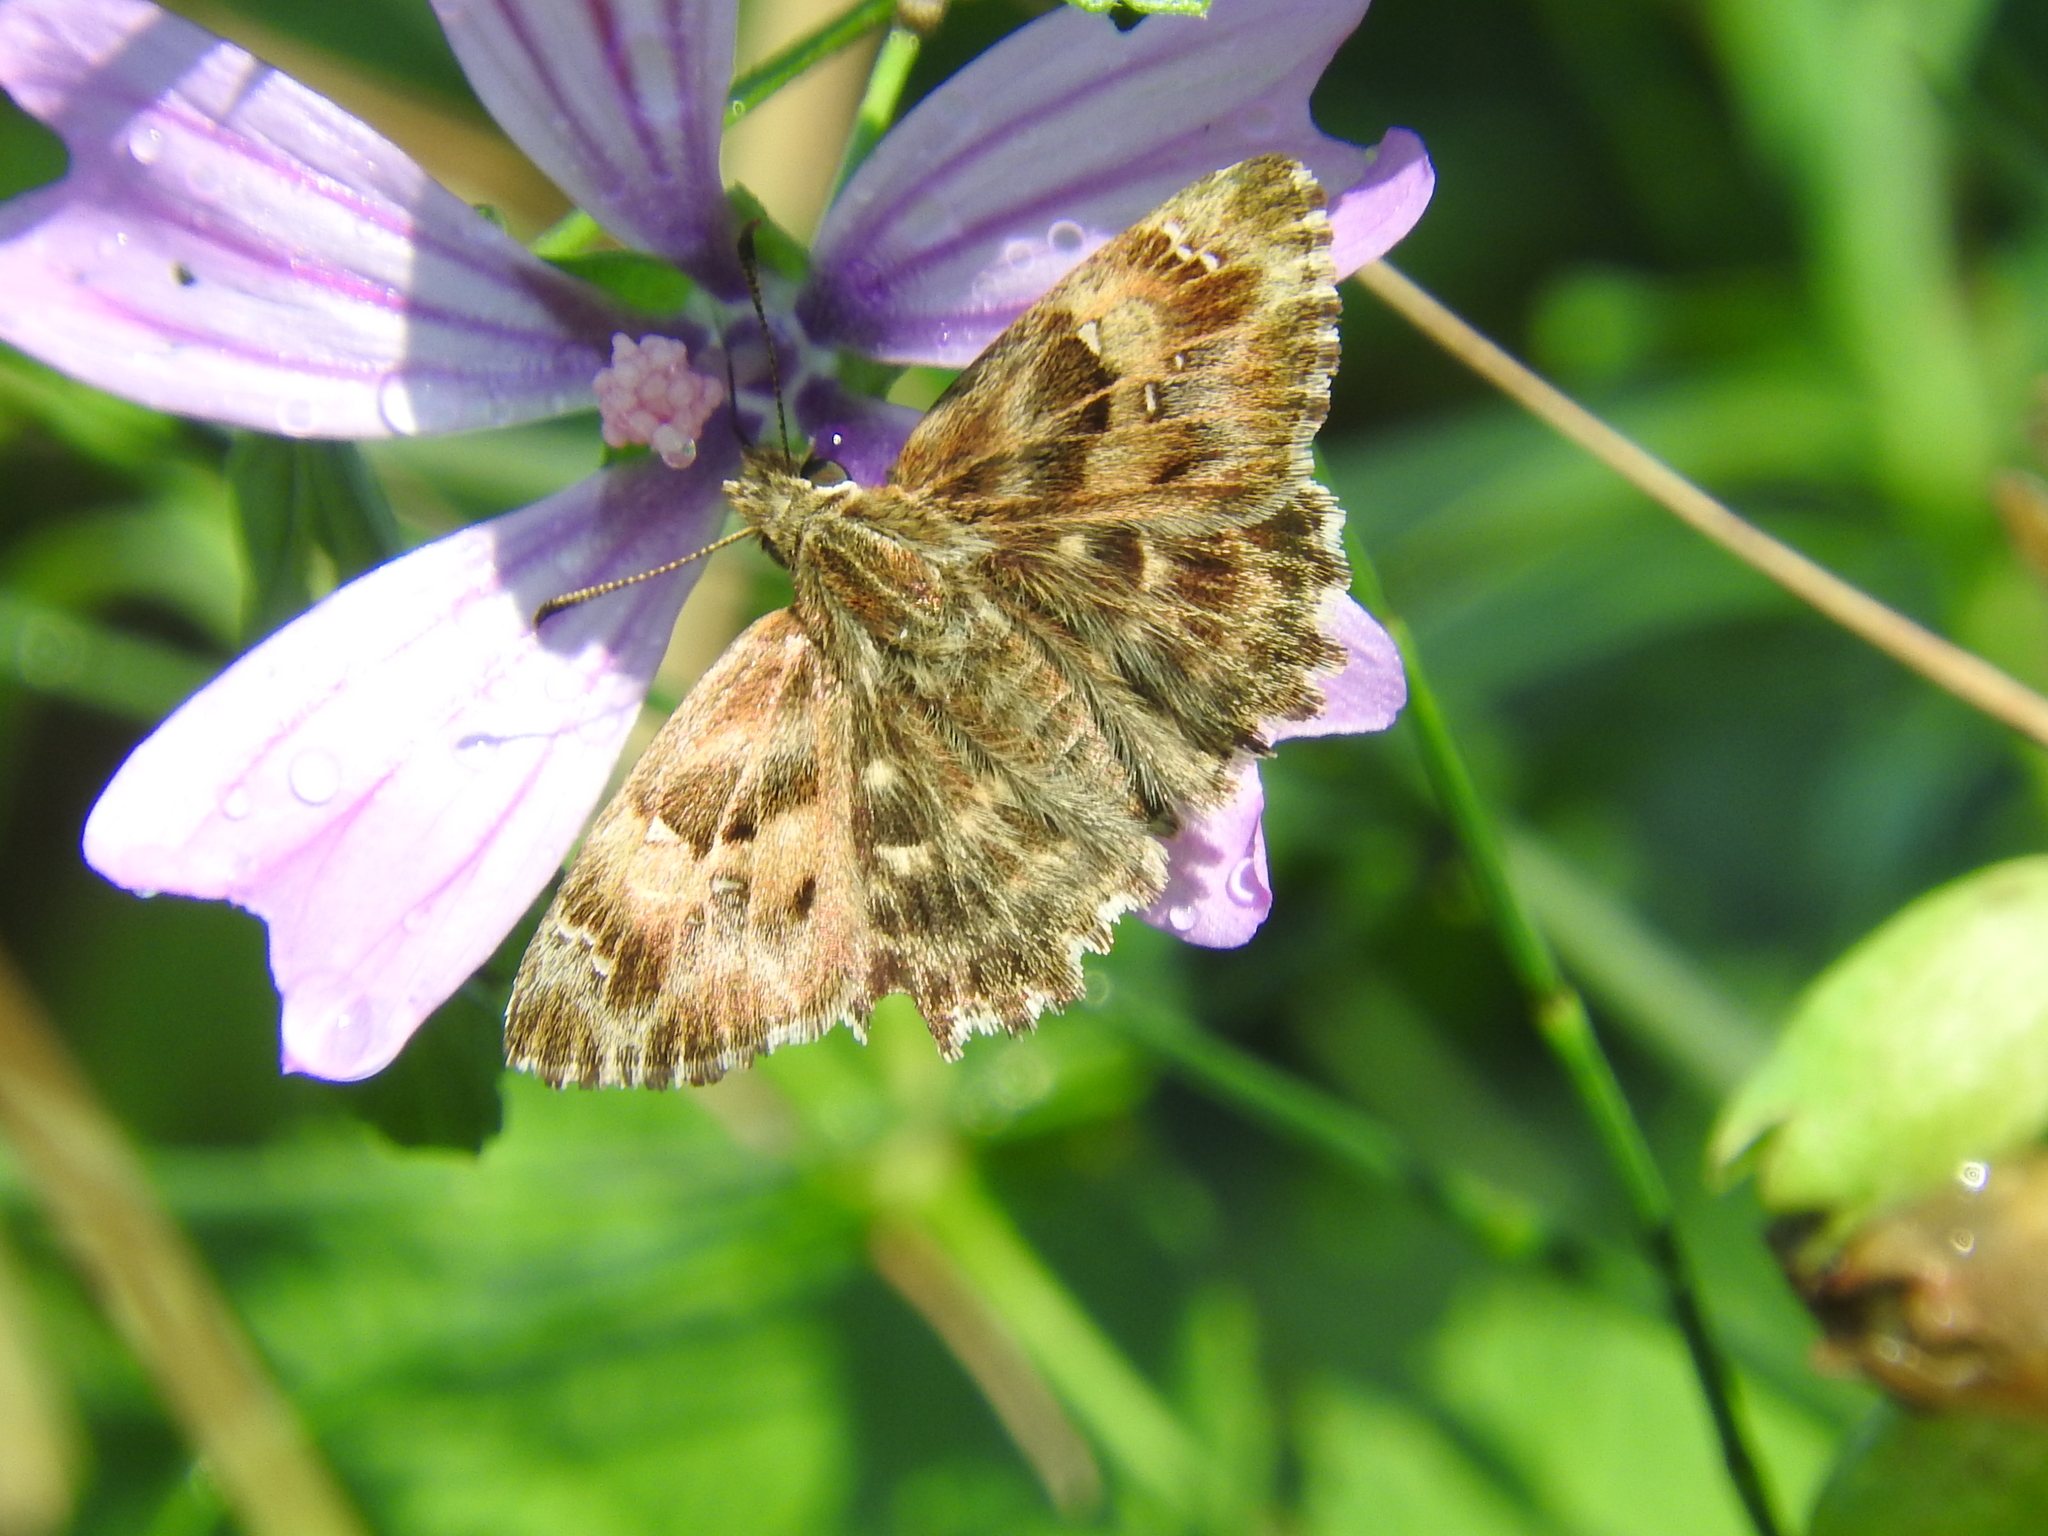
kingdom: Animalia
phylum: Arthropoda
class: Insecta
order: Lepidoptera
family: Hesperiidae
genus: Carcharodus
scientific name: Carcharodus alceae
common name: Mallow skipper
